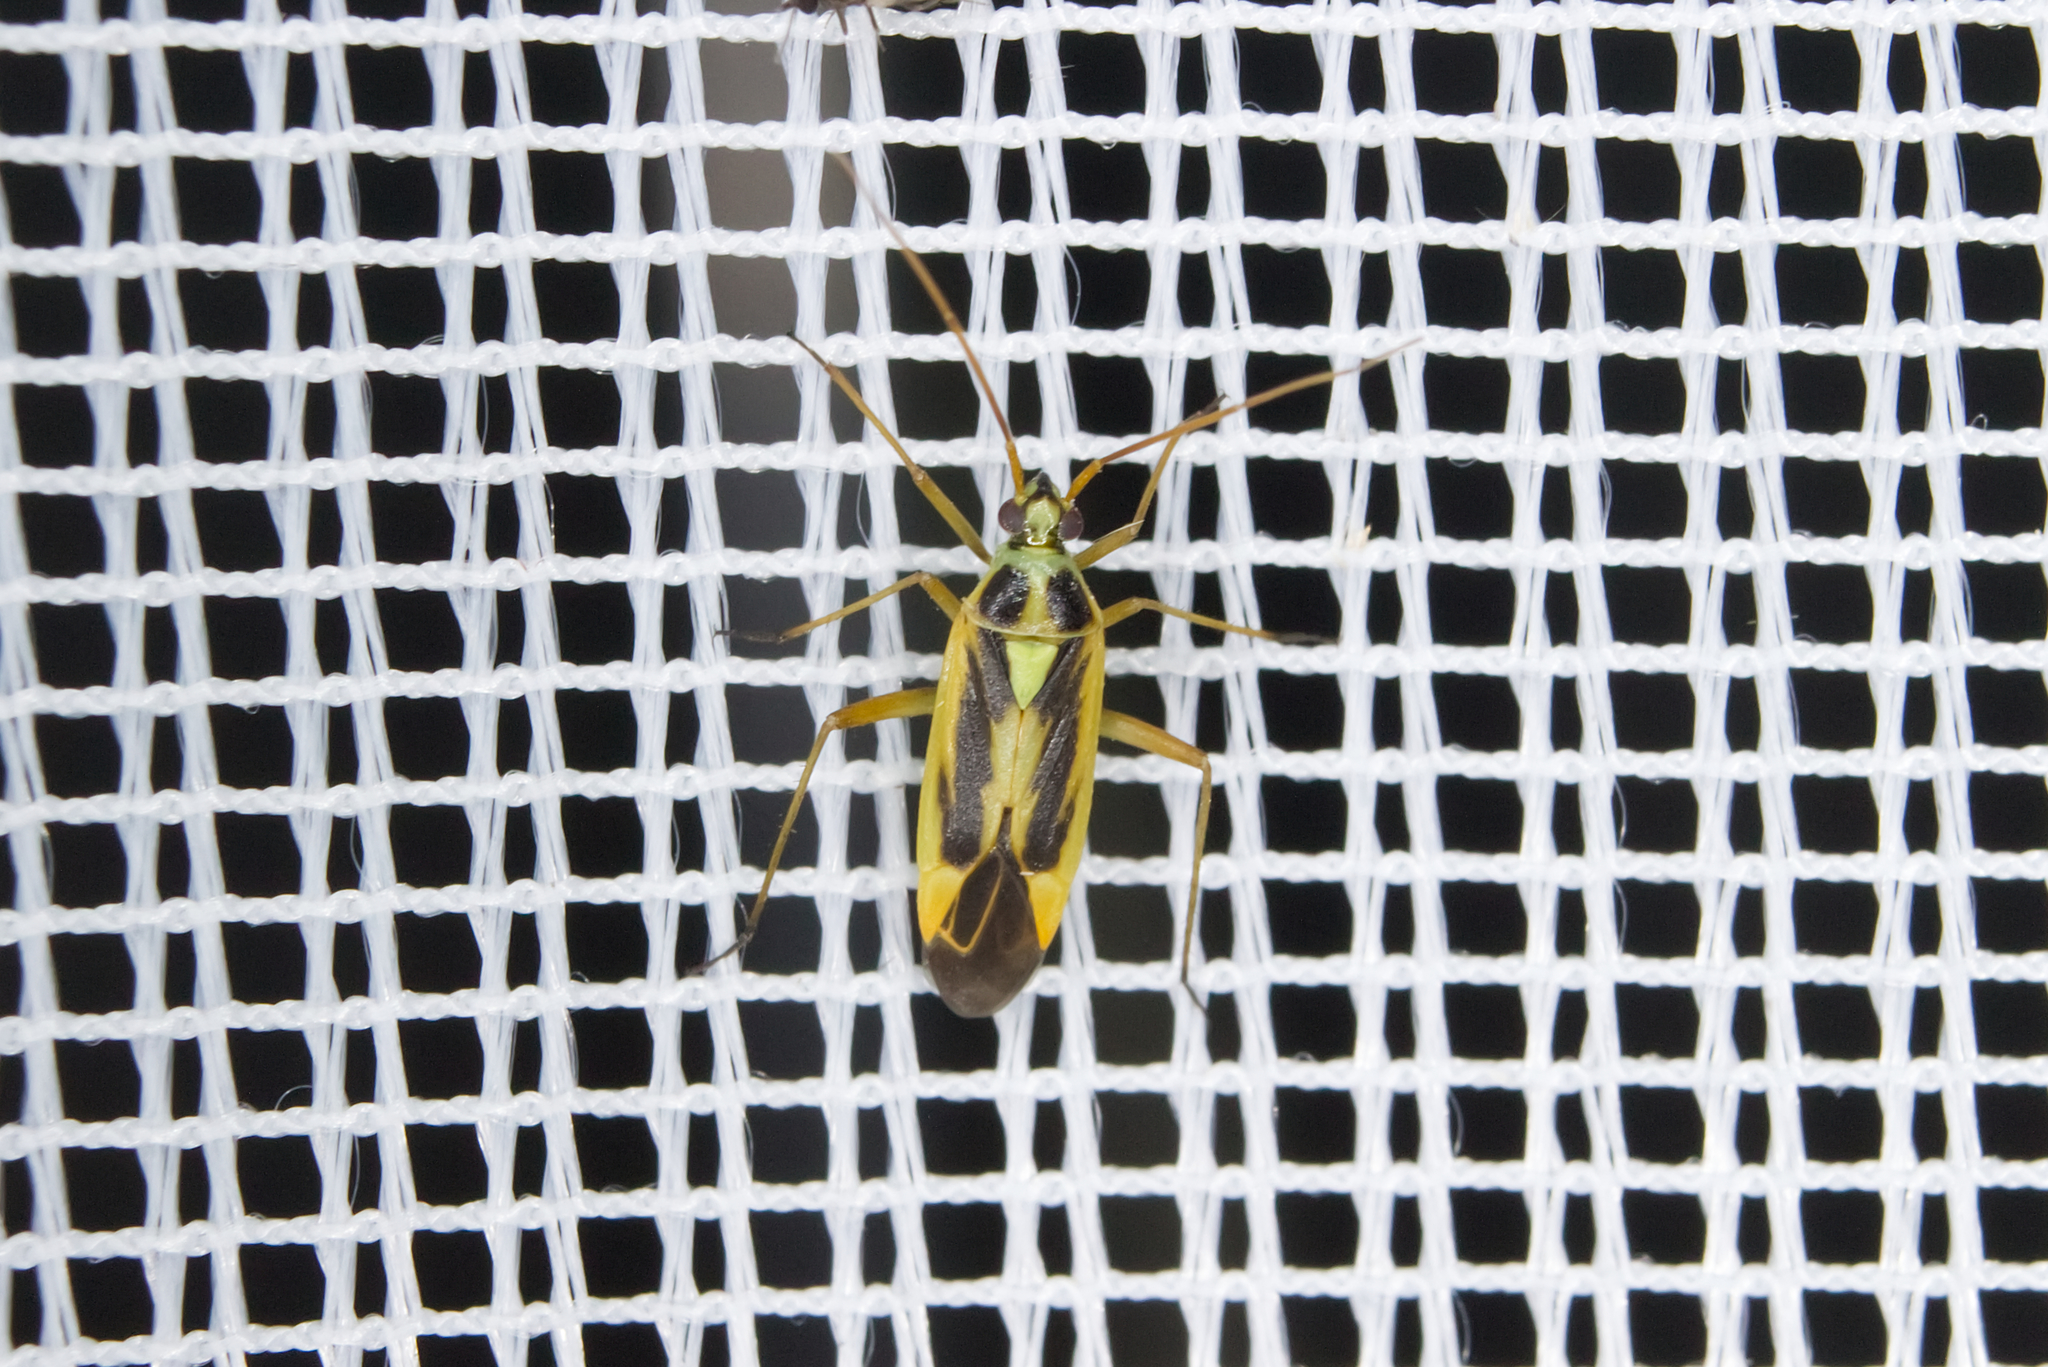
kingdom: Animalia
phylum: Arthropoda
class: Insecta
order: Hemiptera
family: Miridae
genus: Stenotus
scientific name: Stenotus binotatus
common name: Plant bug
